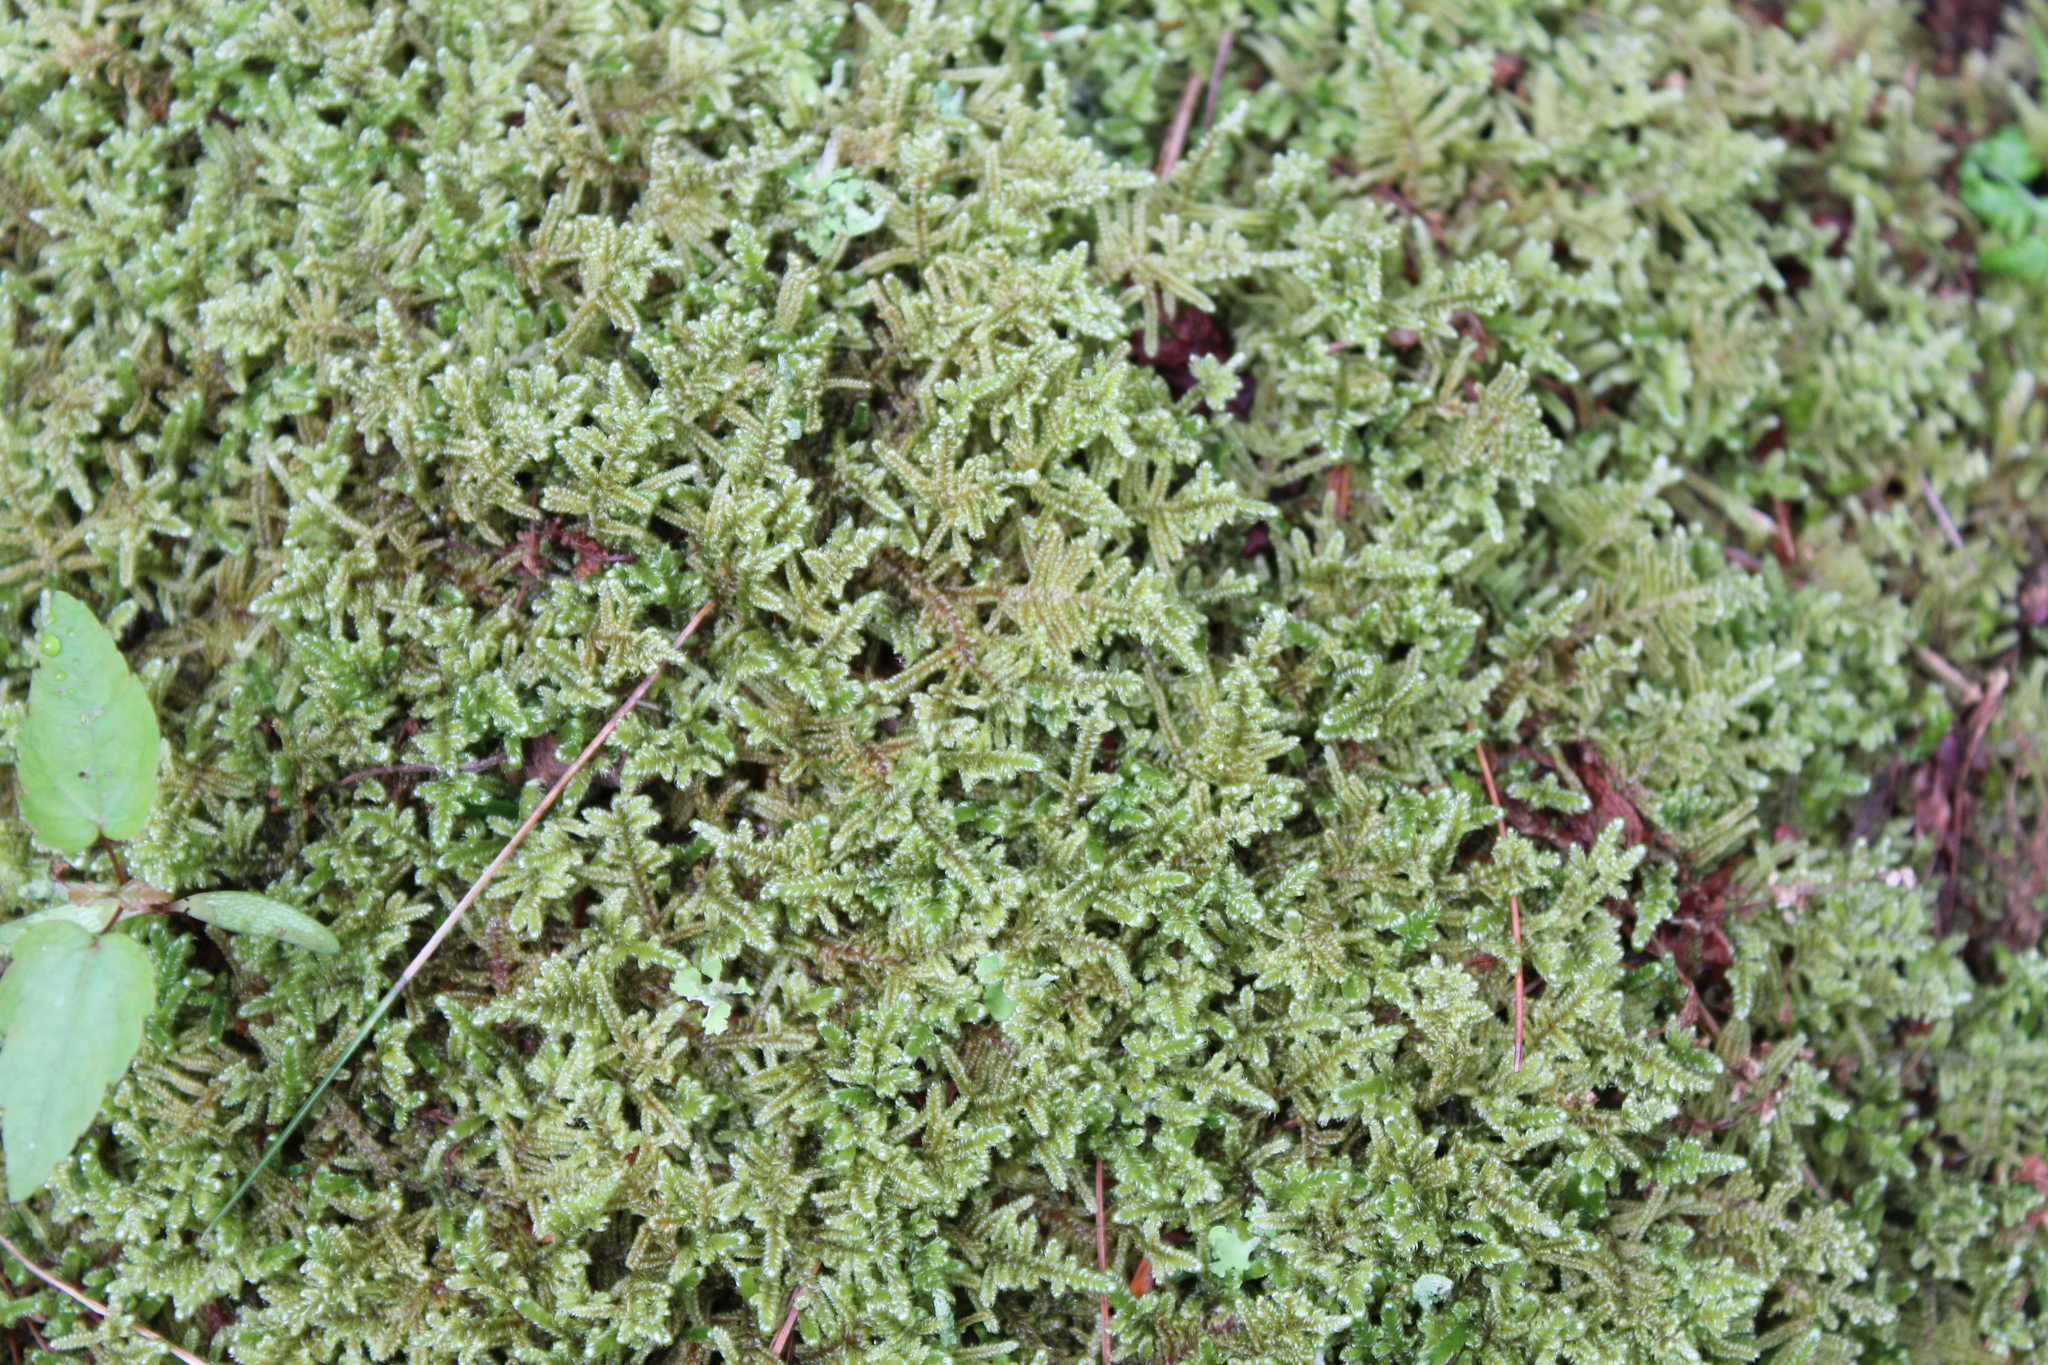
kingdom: Plantae
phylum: Bryophyta
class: Bryopsida
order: Hypnales
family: Callicladiaceae
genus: Callicladium
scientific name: Callicladium imponens
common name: Brocade moss
